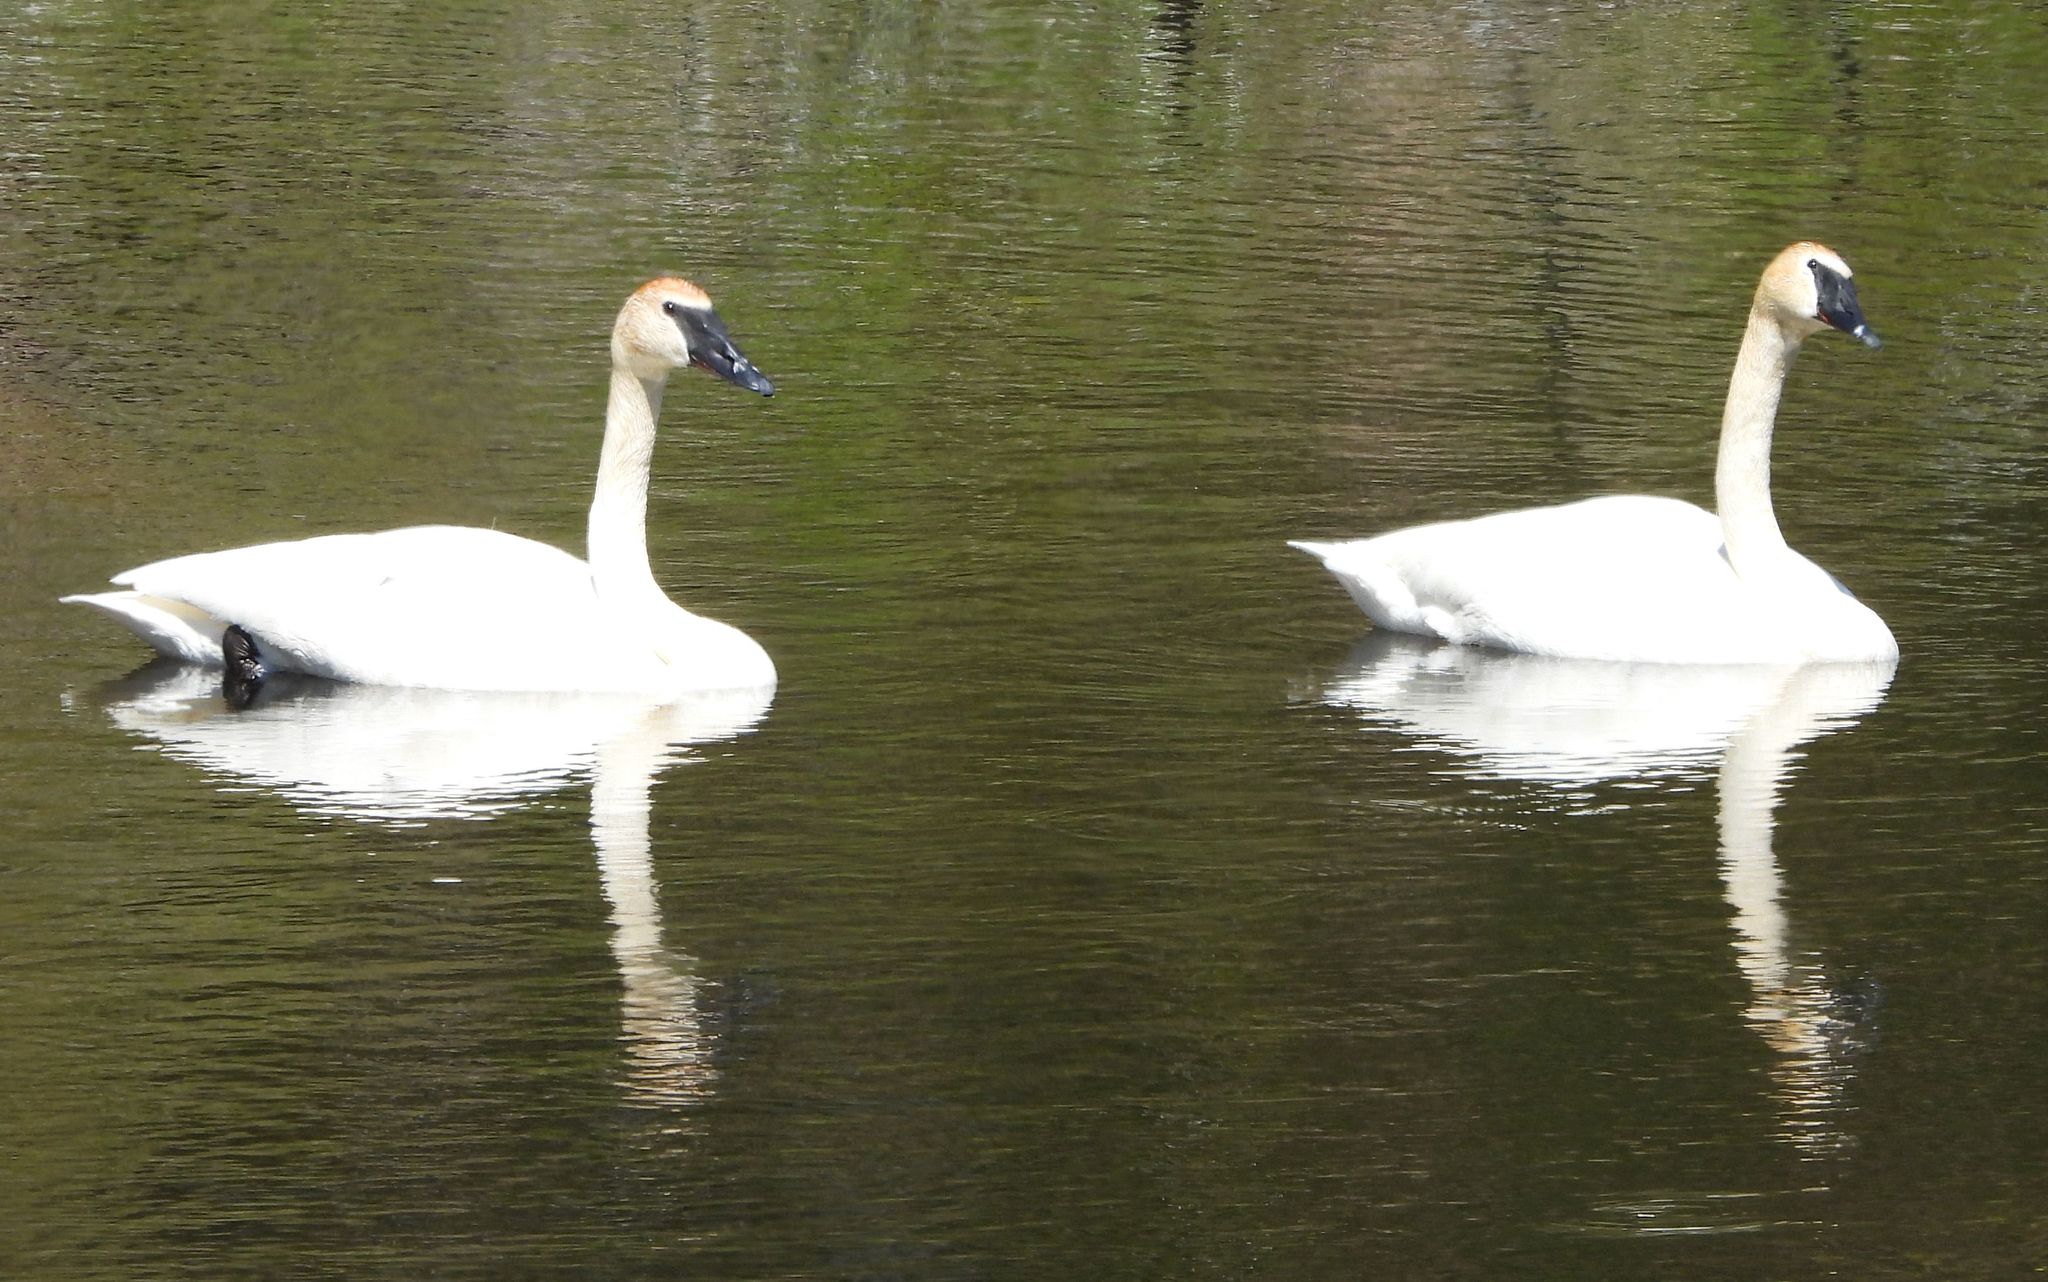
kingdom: Animalia
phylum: Chordata
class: Aves
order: Anseriformes
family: Anatidae
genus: Cygnus
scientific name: Cygnus buccinator
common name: Trumpeter swan
